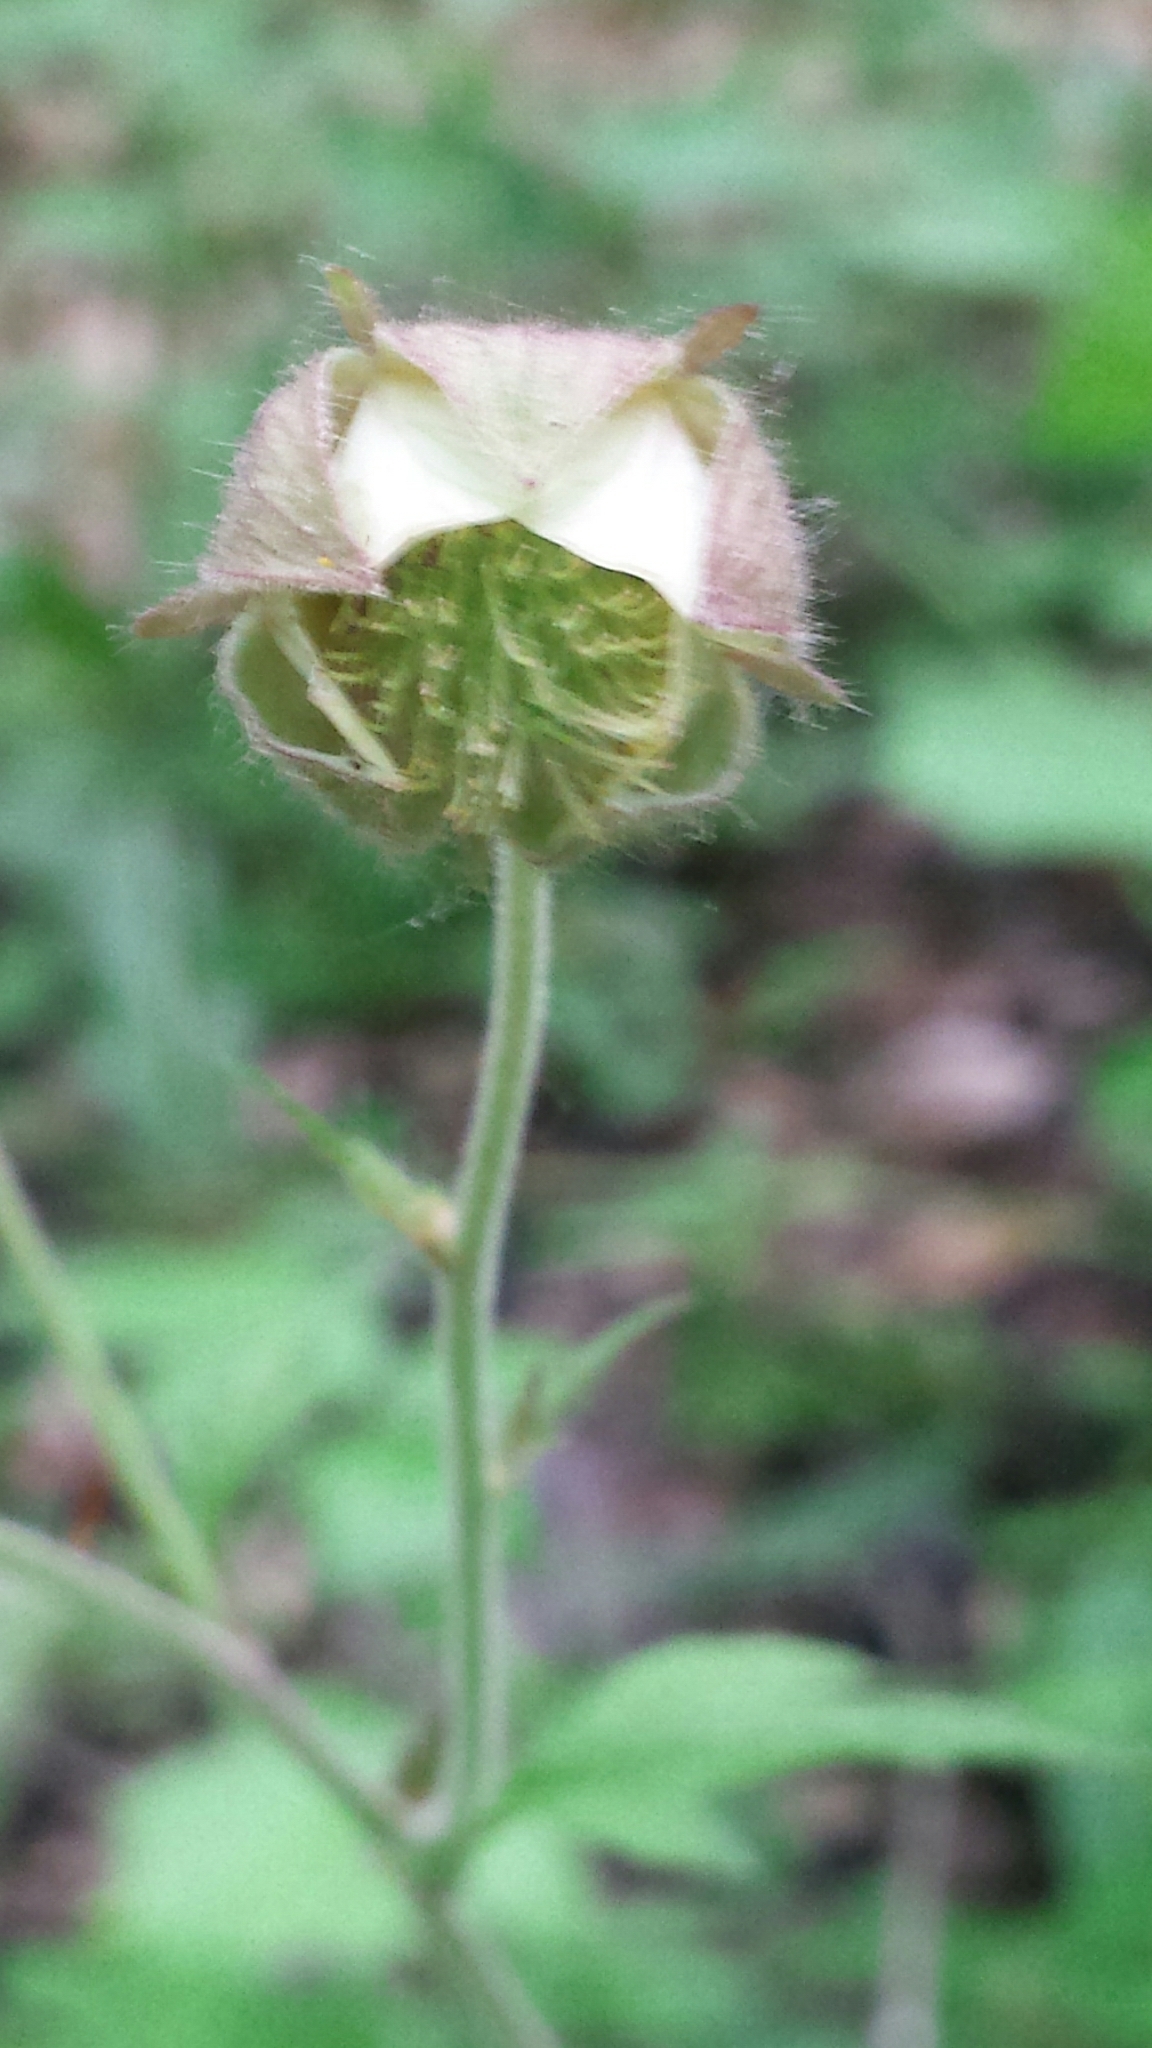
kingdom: Plantae
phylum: Tracheophyta
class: Magnoliopsida
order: Rosales
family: Rosaceae
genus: Geum
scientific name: Geum rivale
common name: Water avens
